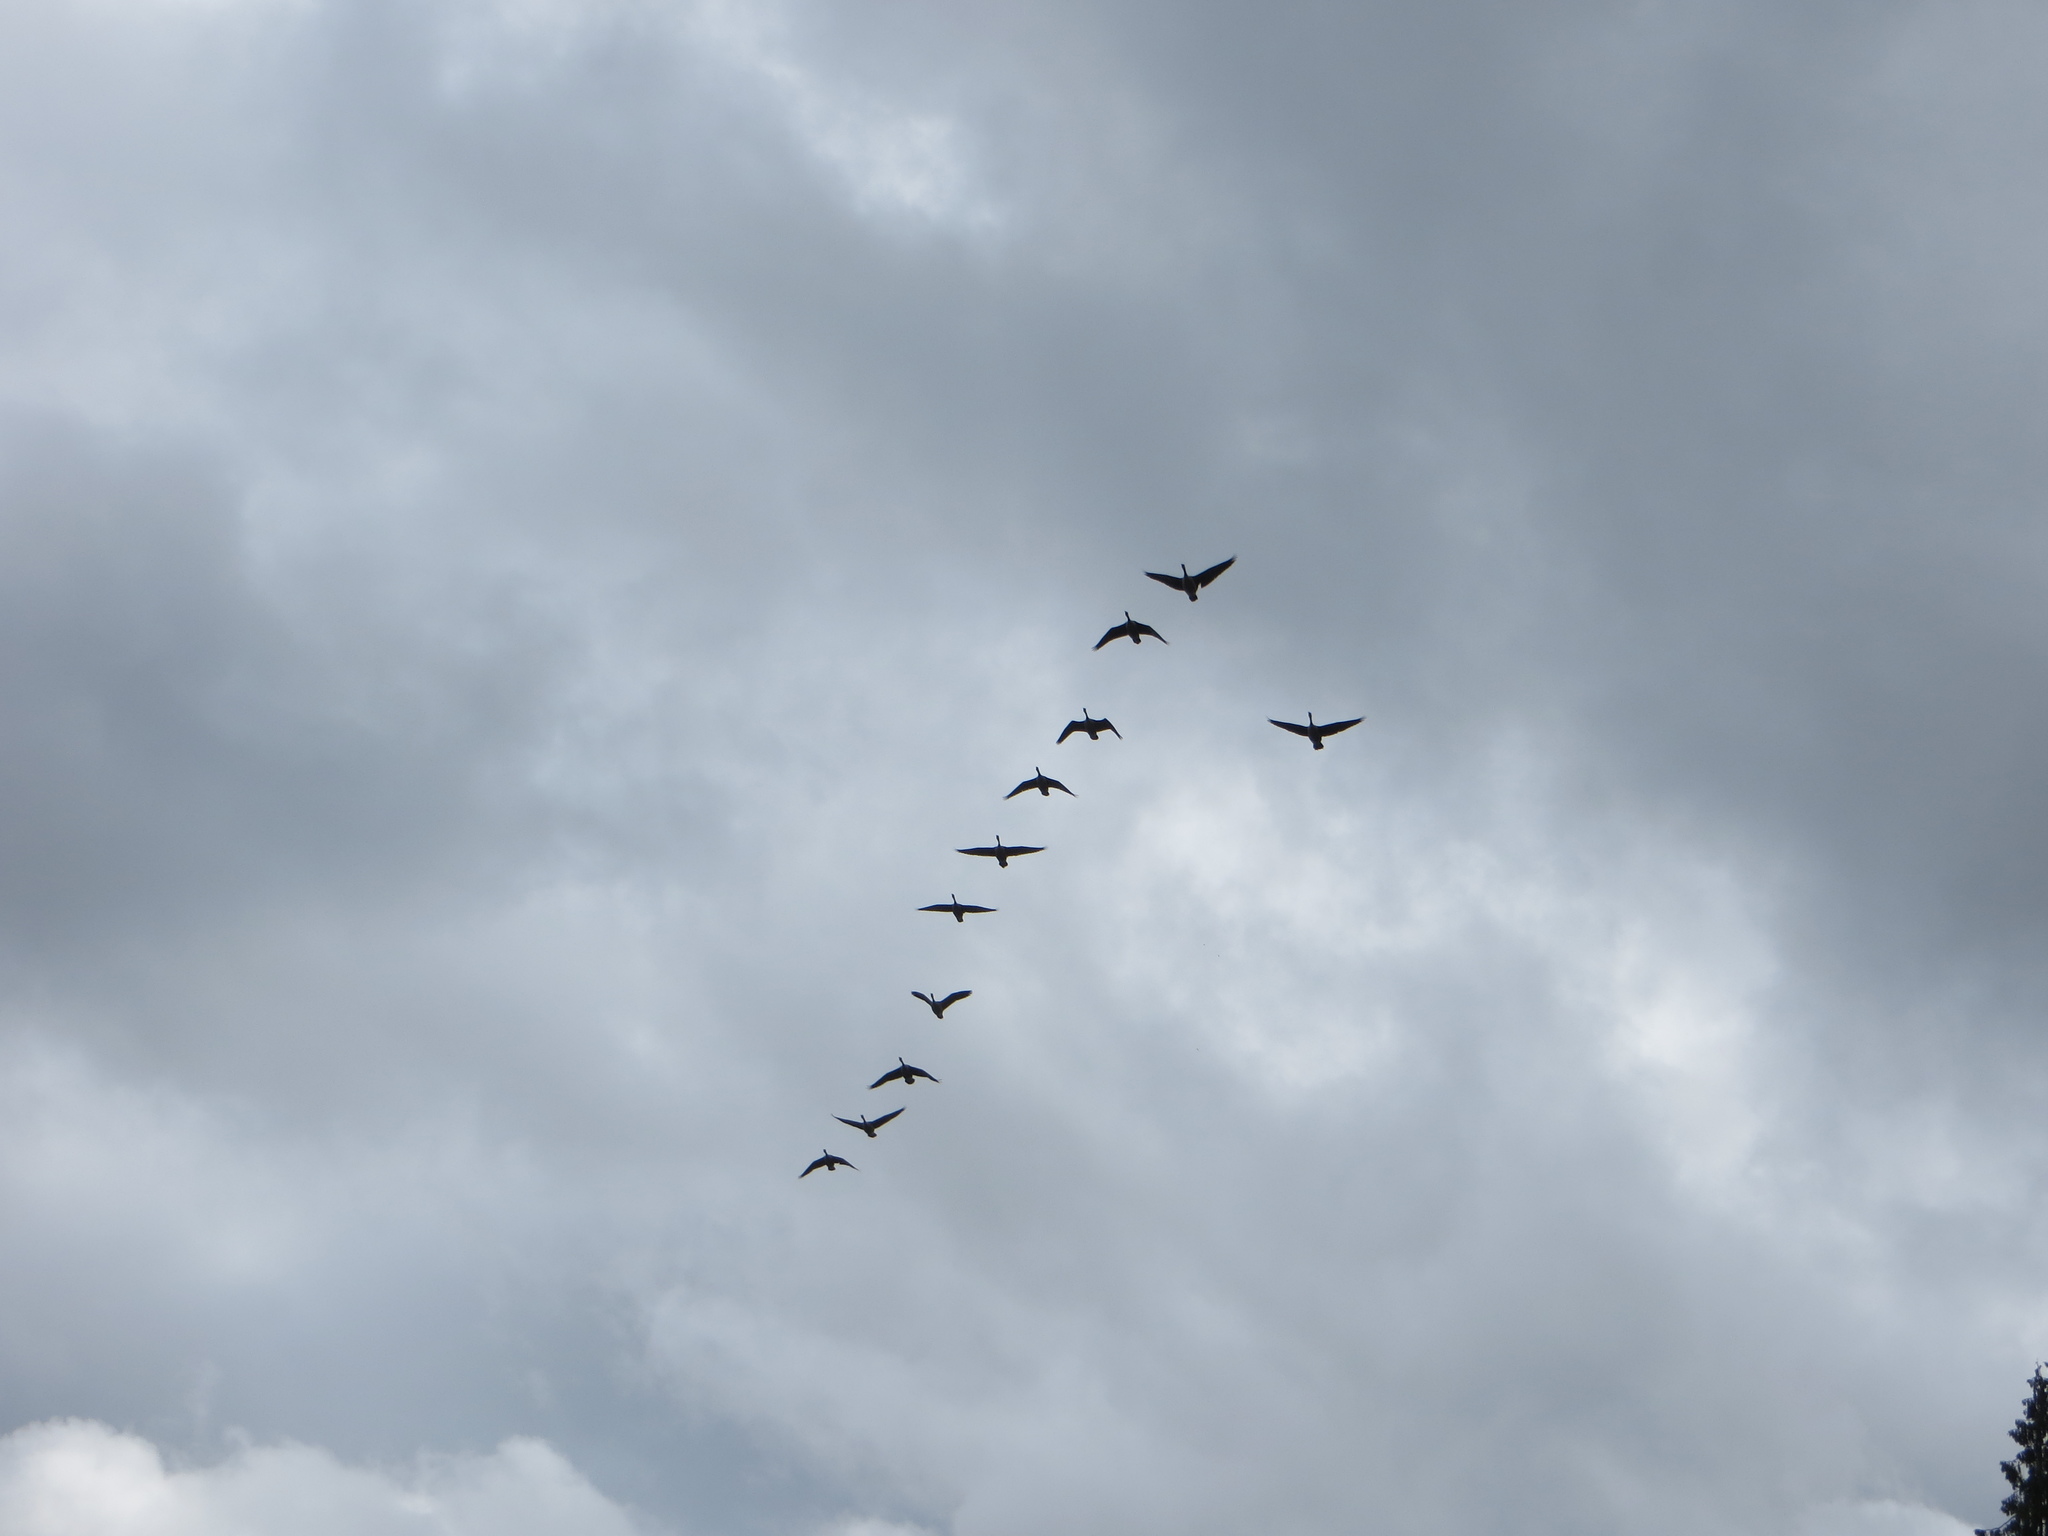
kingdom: Animalia
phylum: Chordata
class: Aves
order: Anseriformes
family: Anatidae
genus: Branta
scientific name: Branta canadensis
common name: Canada goose
